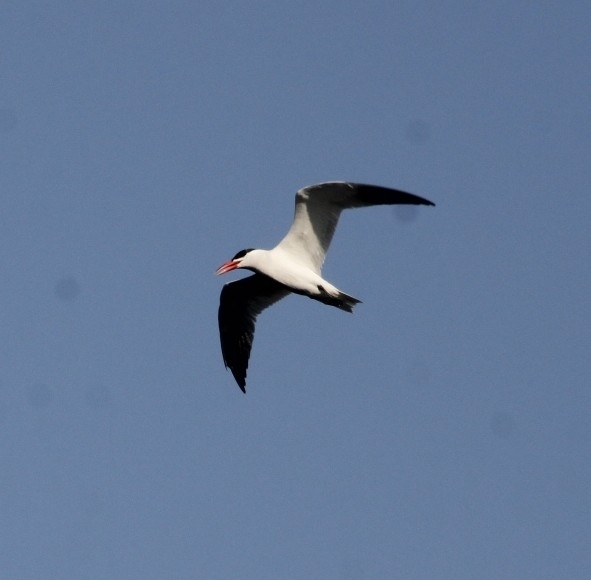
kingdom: Animalia
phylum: Chordata
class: Aves
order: Charadriiformes
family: Laridae
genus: Hydroprogne
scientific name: Hydroprogne caspia
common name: Caspian tern
